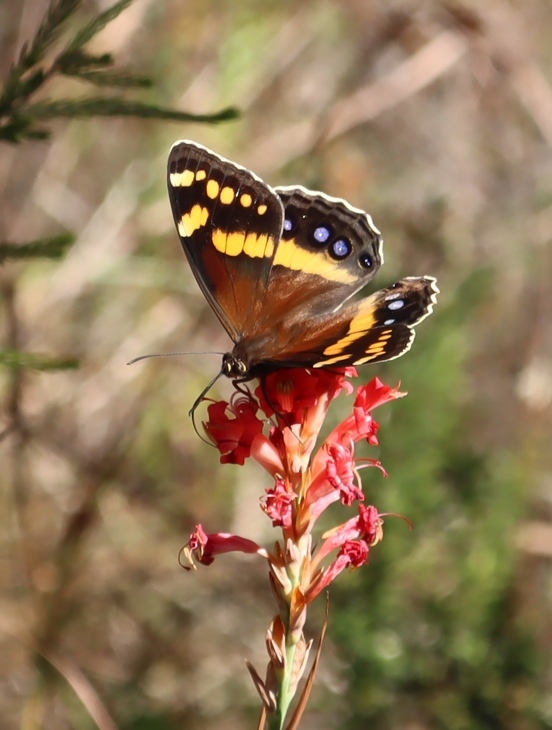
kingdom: Animalia
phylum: Arthropoda
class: Insecta
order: Lepidoptera
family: Nymphalidae
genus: Meneris
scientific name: Meneris Aeropetes tulbaghia
